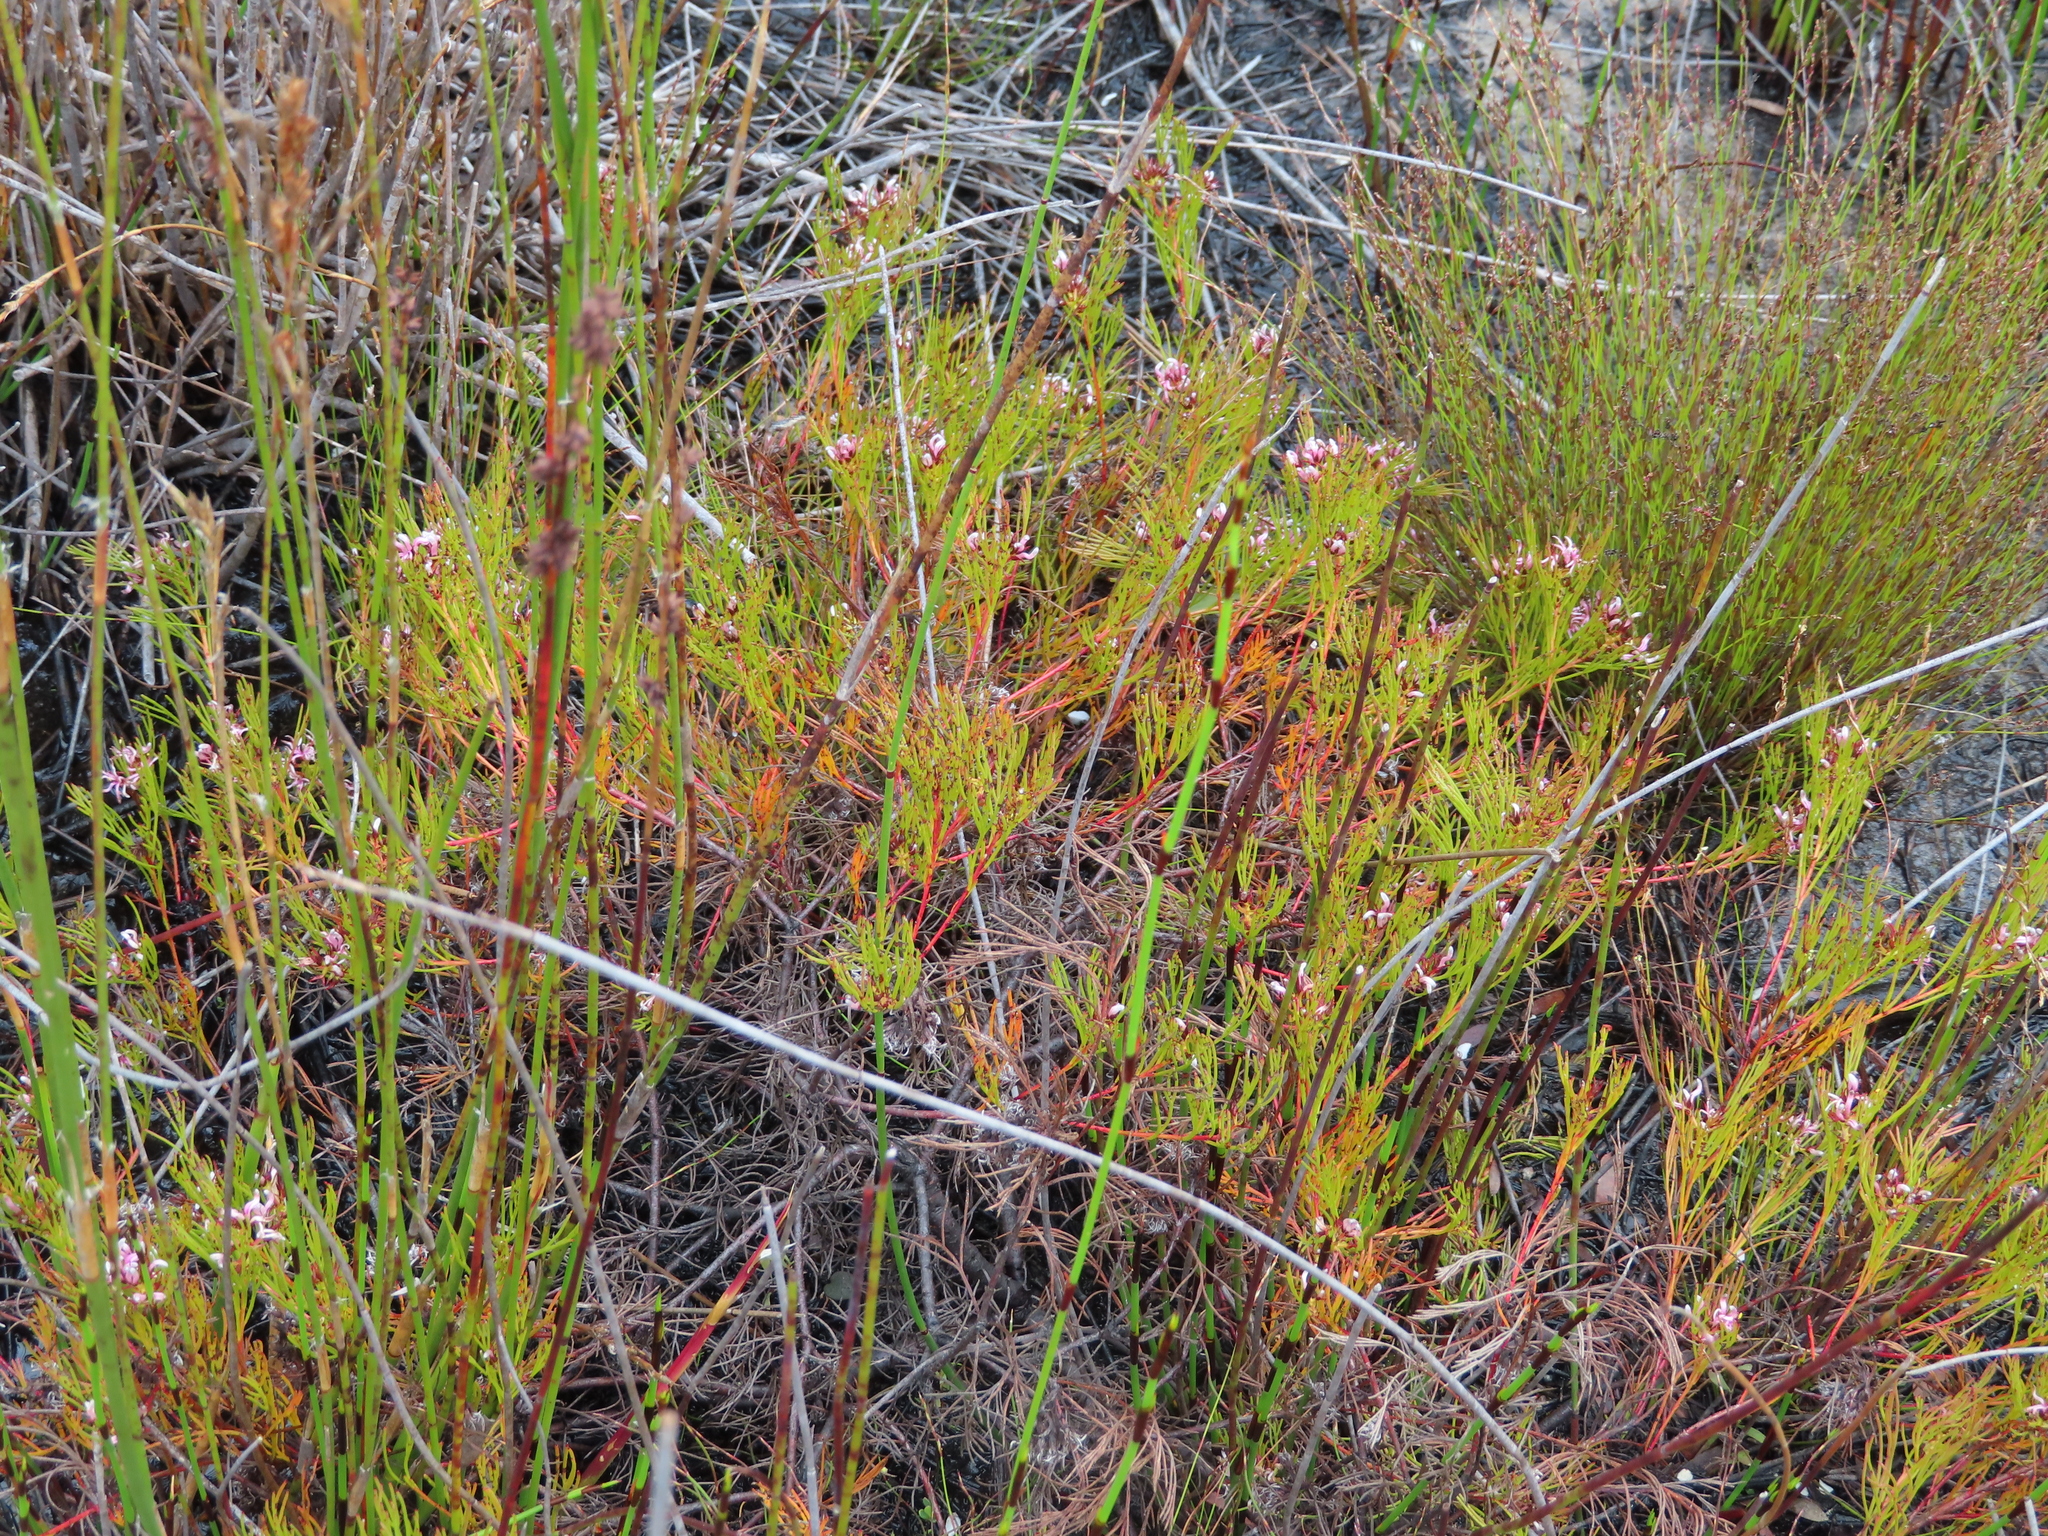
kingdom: Plantae
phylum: Tracheophyta
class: Magnoliopsida
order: Proteales
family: Proteaceae
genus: Serruria
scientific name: Serruria bolusii
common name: Agulhas spiderhead
